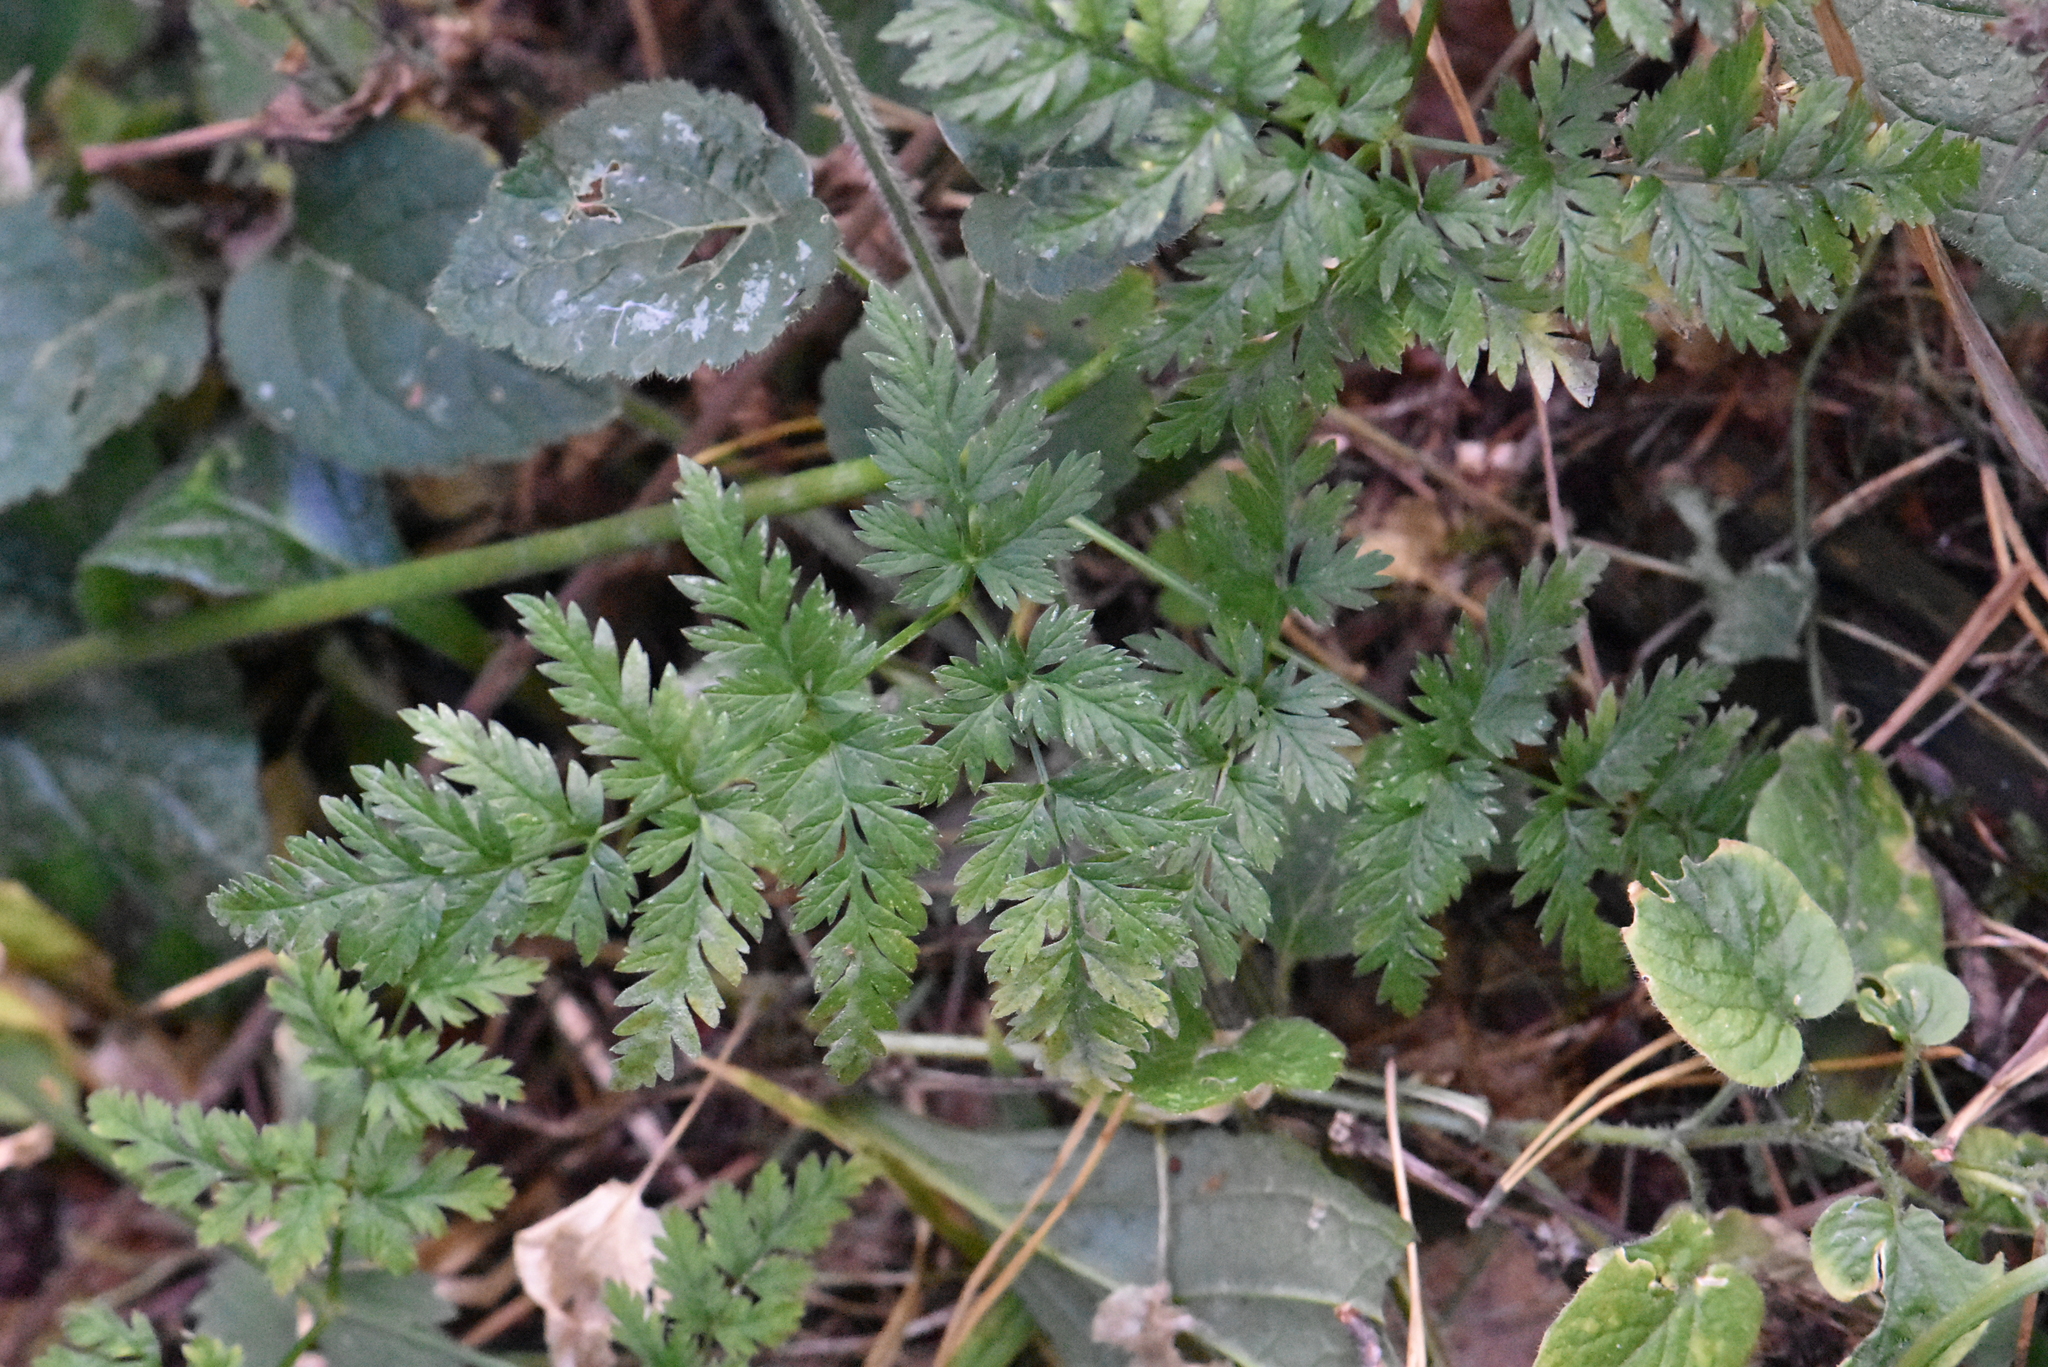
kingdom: Plantae
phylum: Tracheophyta
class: Magnoliopsida
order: Apiales
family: Apiaceae
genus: Anthriscus
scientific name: Anthriscus sylvestris
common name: Cow parsley
